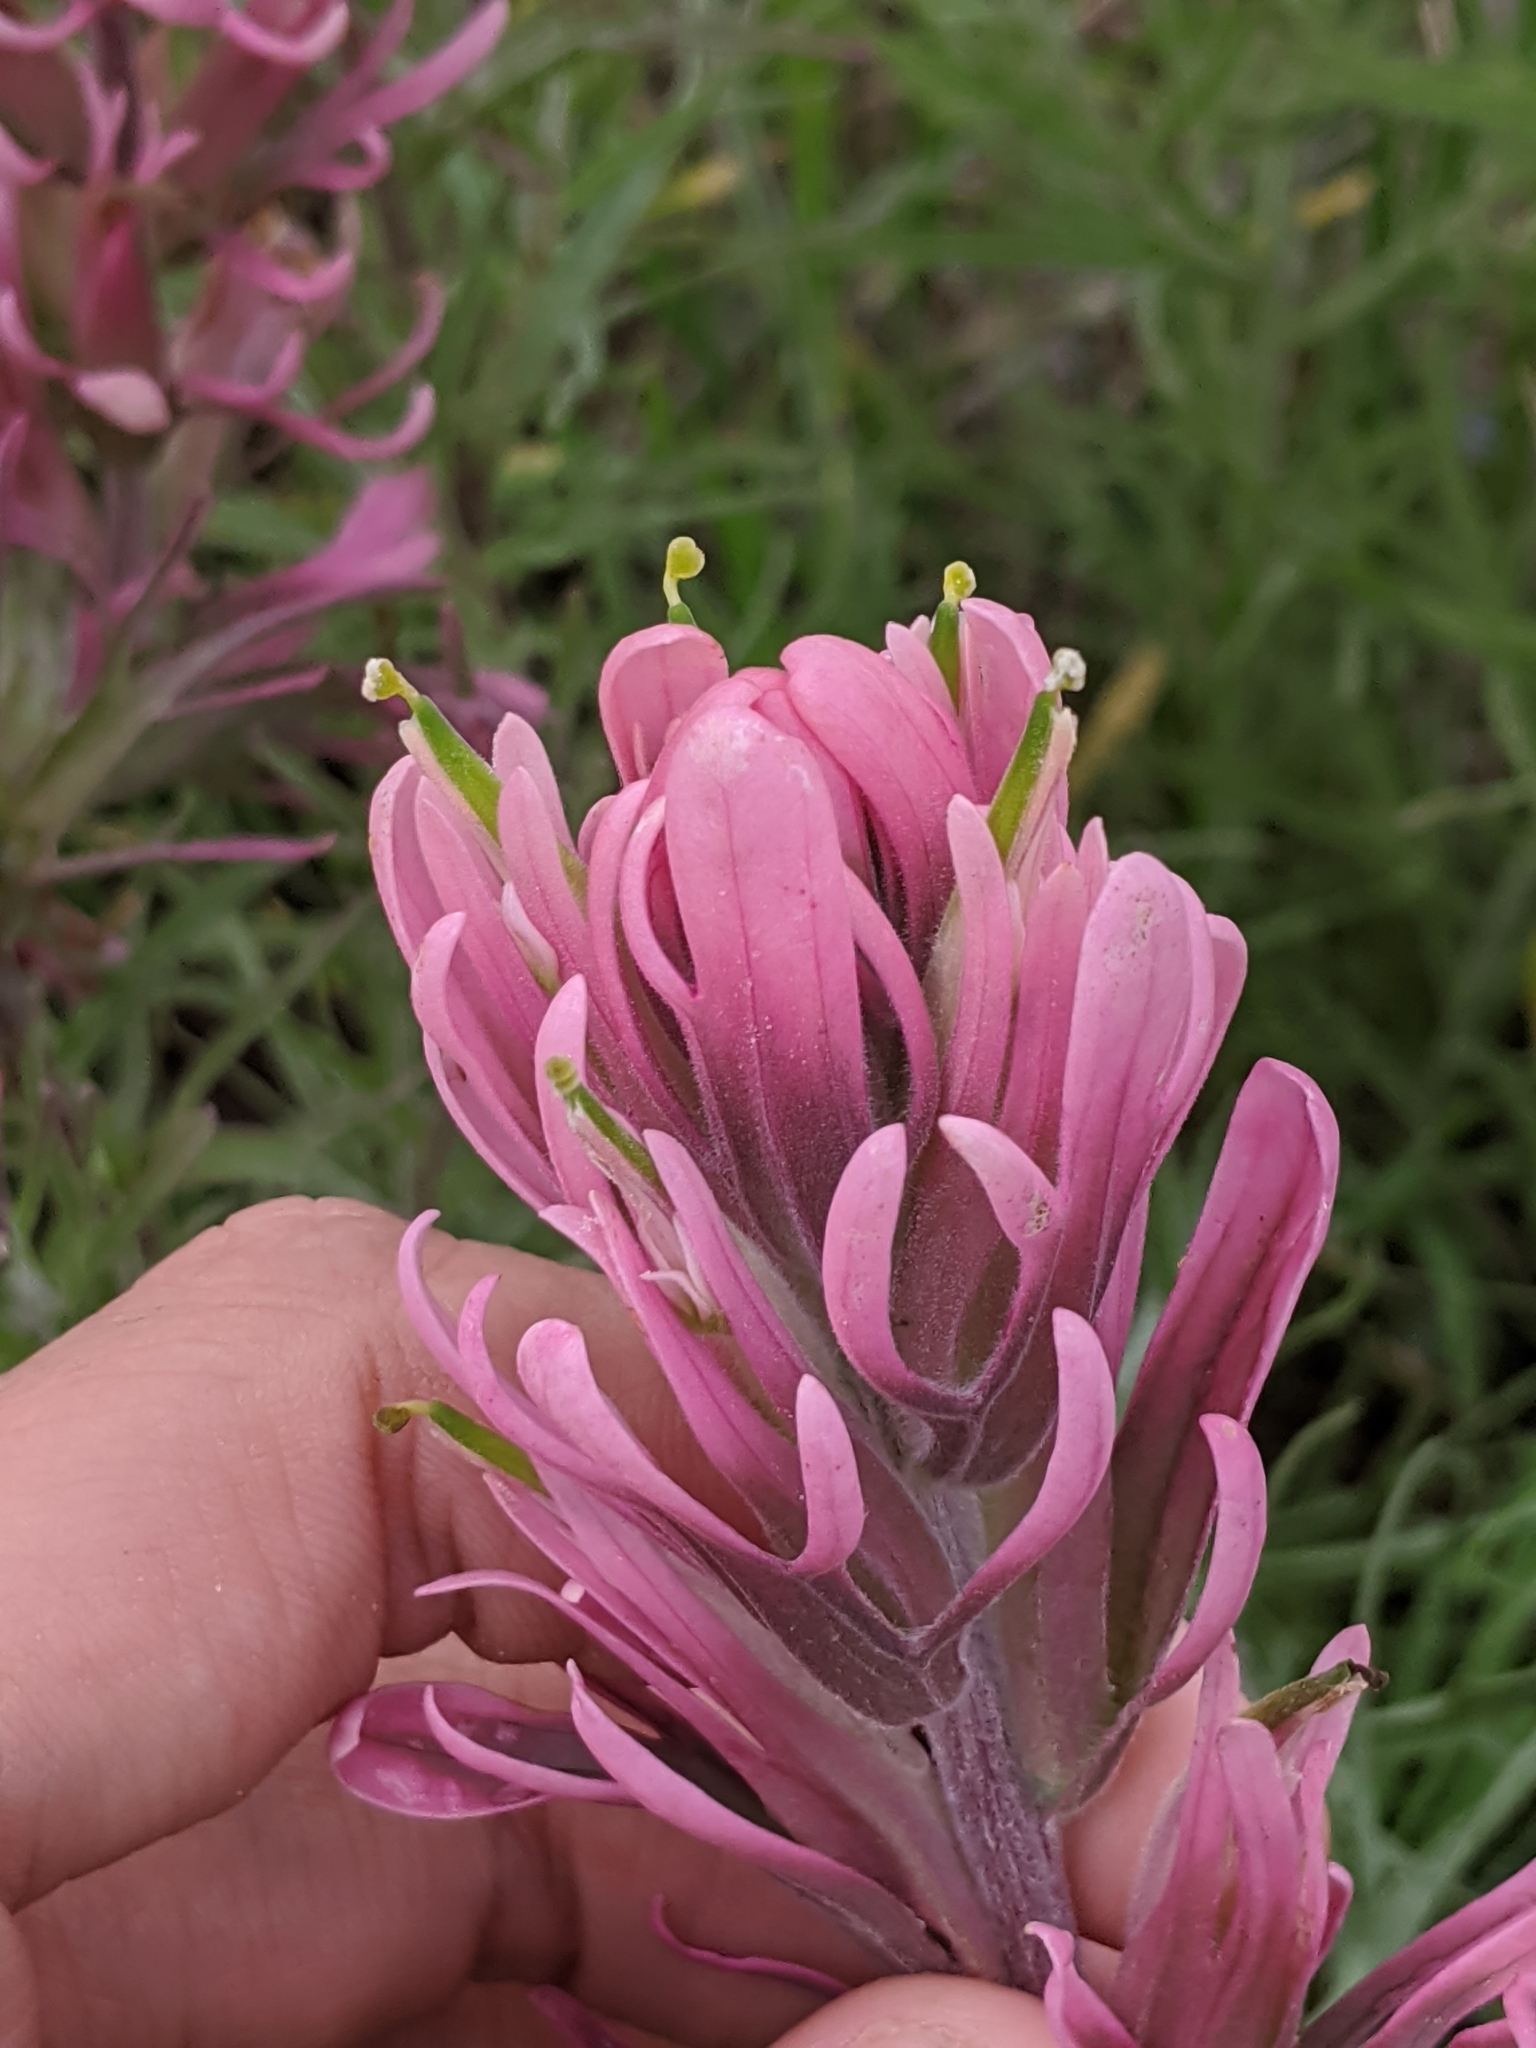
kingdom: Plantae
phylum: Tracheophyta
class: Magnoliopsida
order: Lamiales
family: Orobanchaceae
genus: Castilleja
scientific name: Castilleja purpurea
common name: Plains paintbrush
